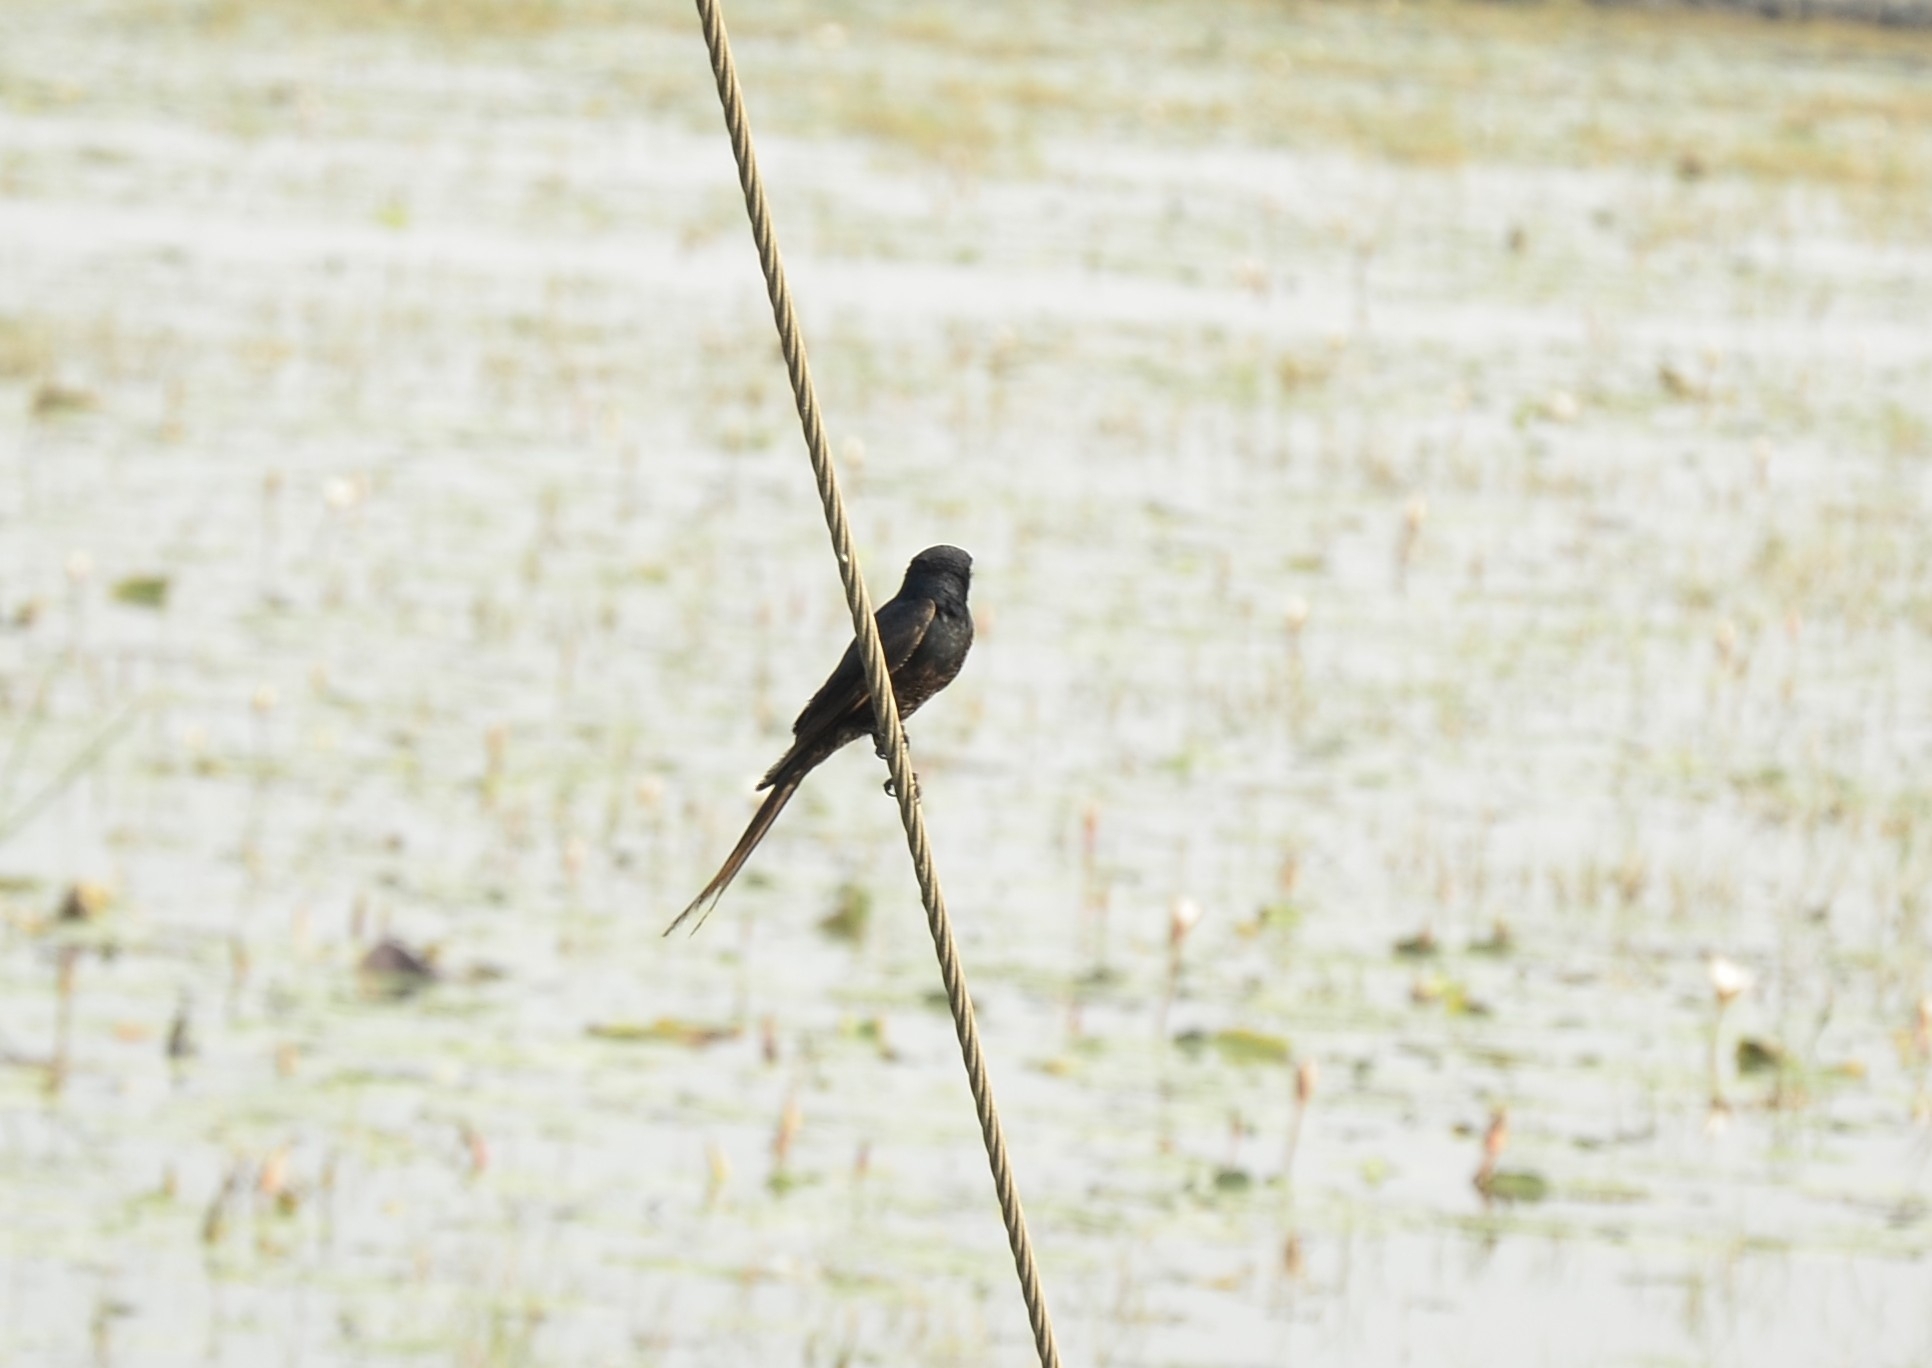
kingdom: Animalia
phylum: Chordata
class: Aves
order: Passeriformes
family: Dicruridae
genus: Dicrurus
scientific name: Dicrurus macrocercus
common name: Black drongo
